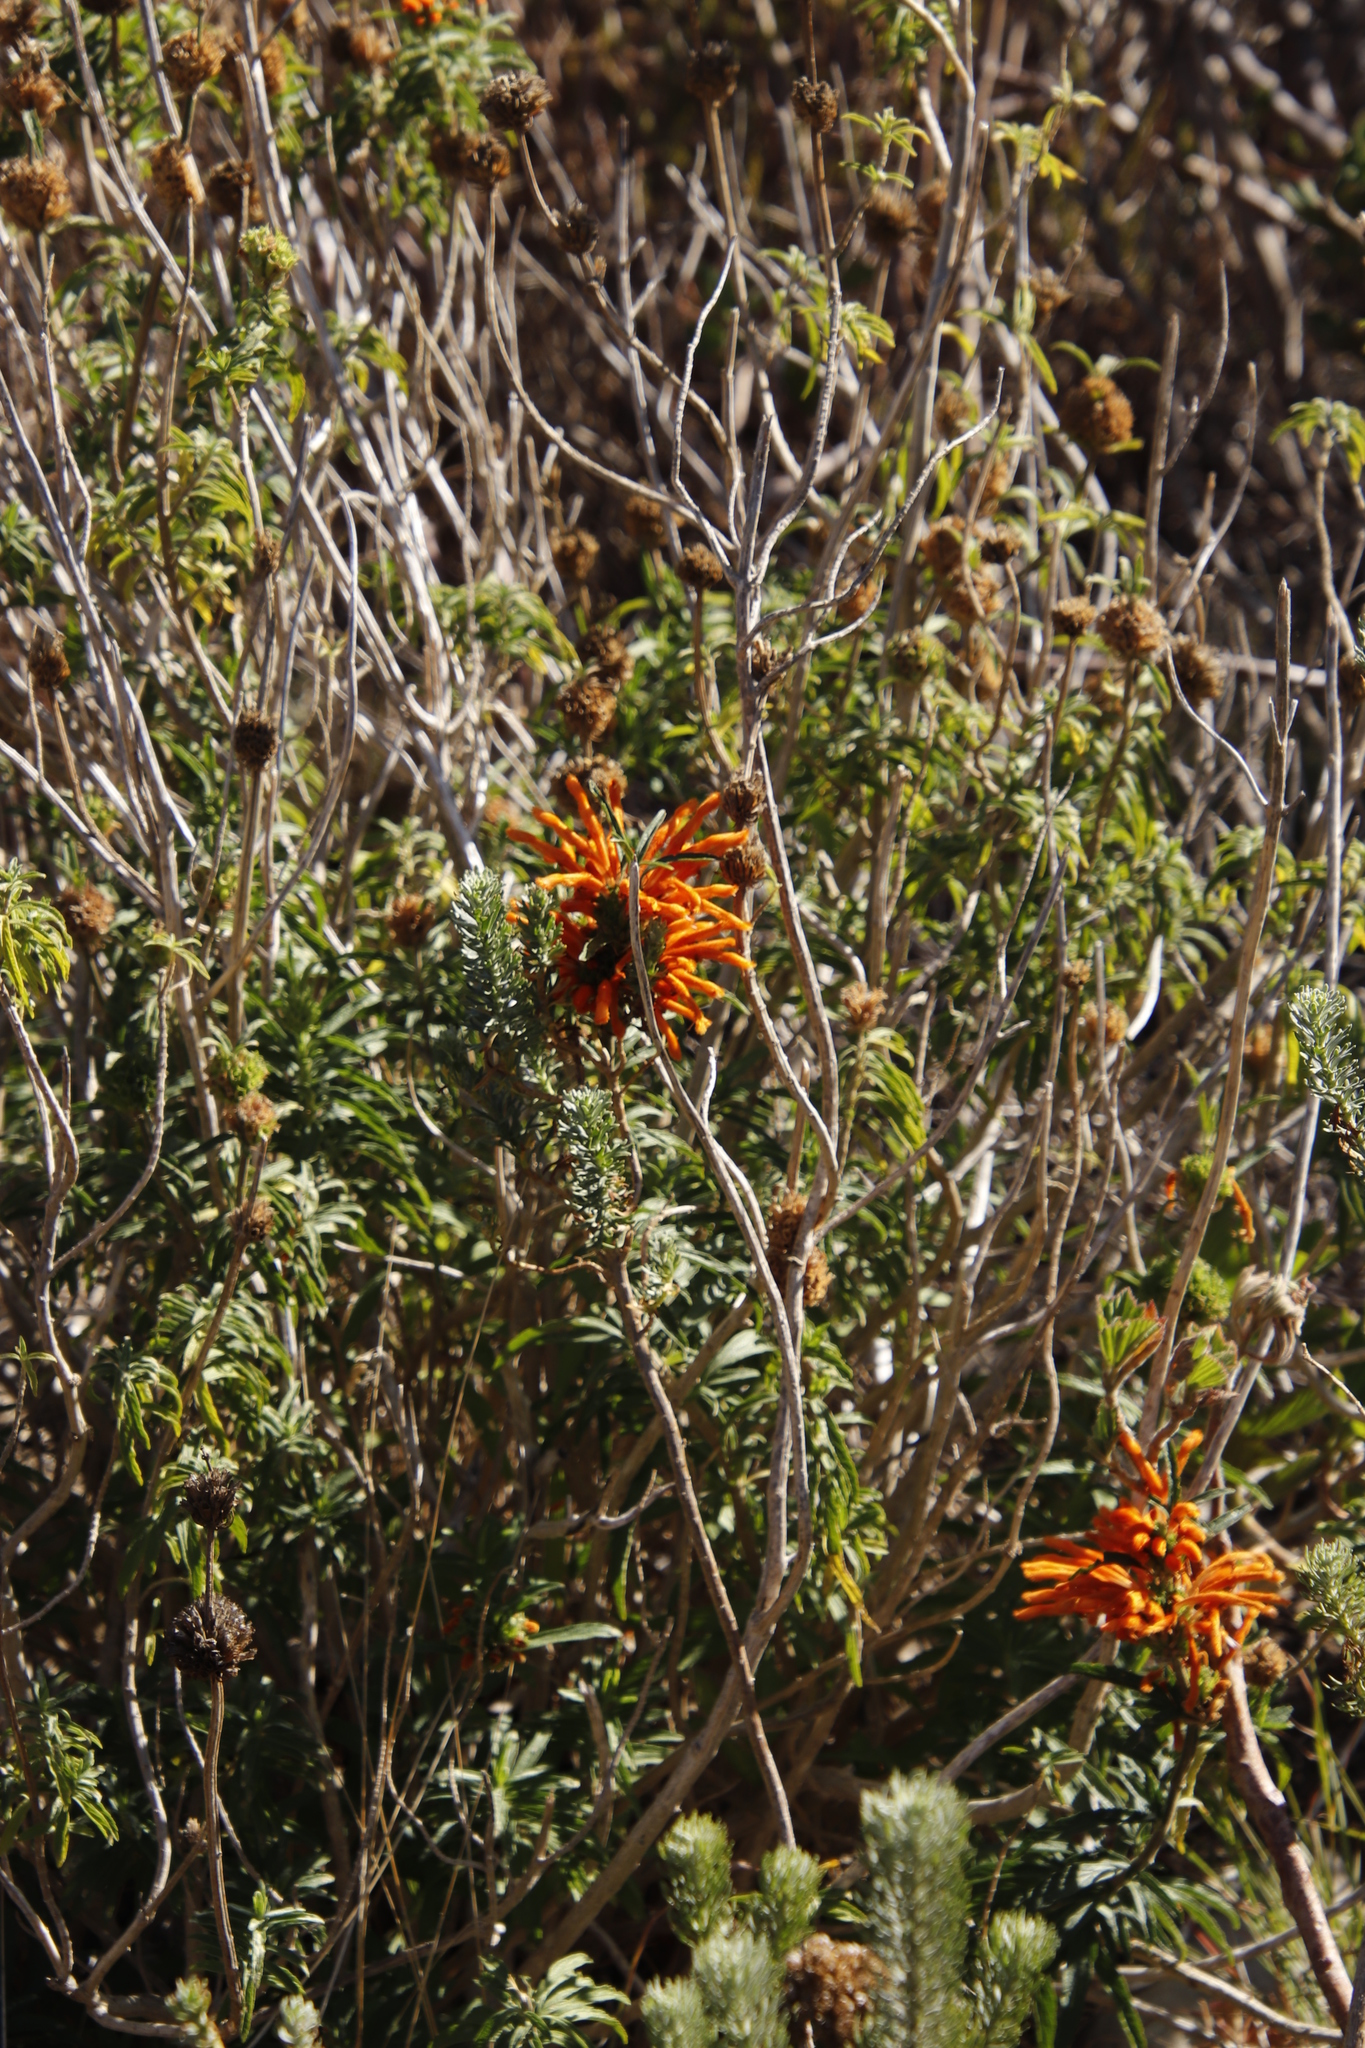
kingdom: Plantae
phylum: Tracheophyta
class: Magnoliopsida
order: Lamiales
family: Lamiaceae
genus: Leonotis
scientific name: Leonotis leonurus
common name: Lion's ear
